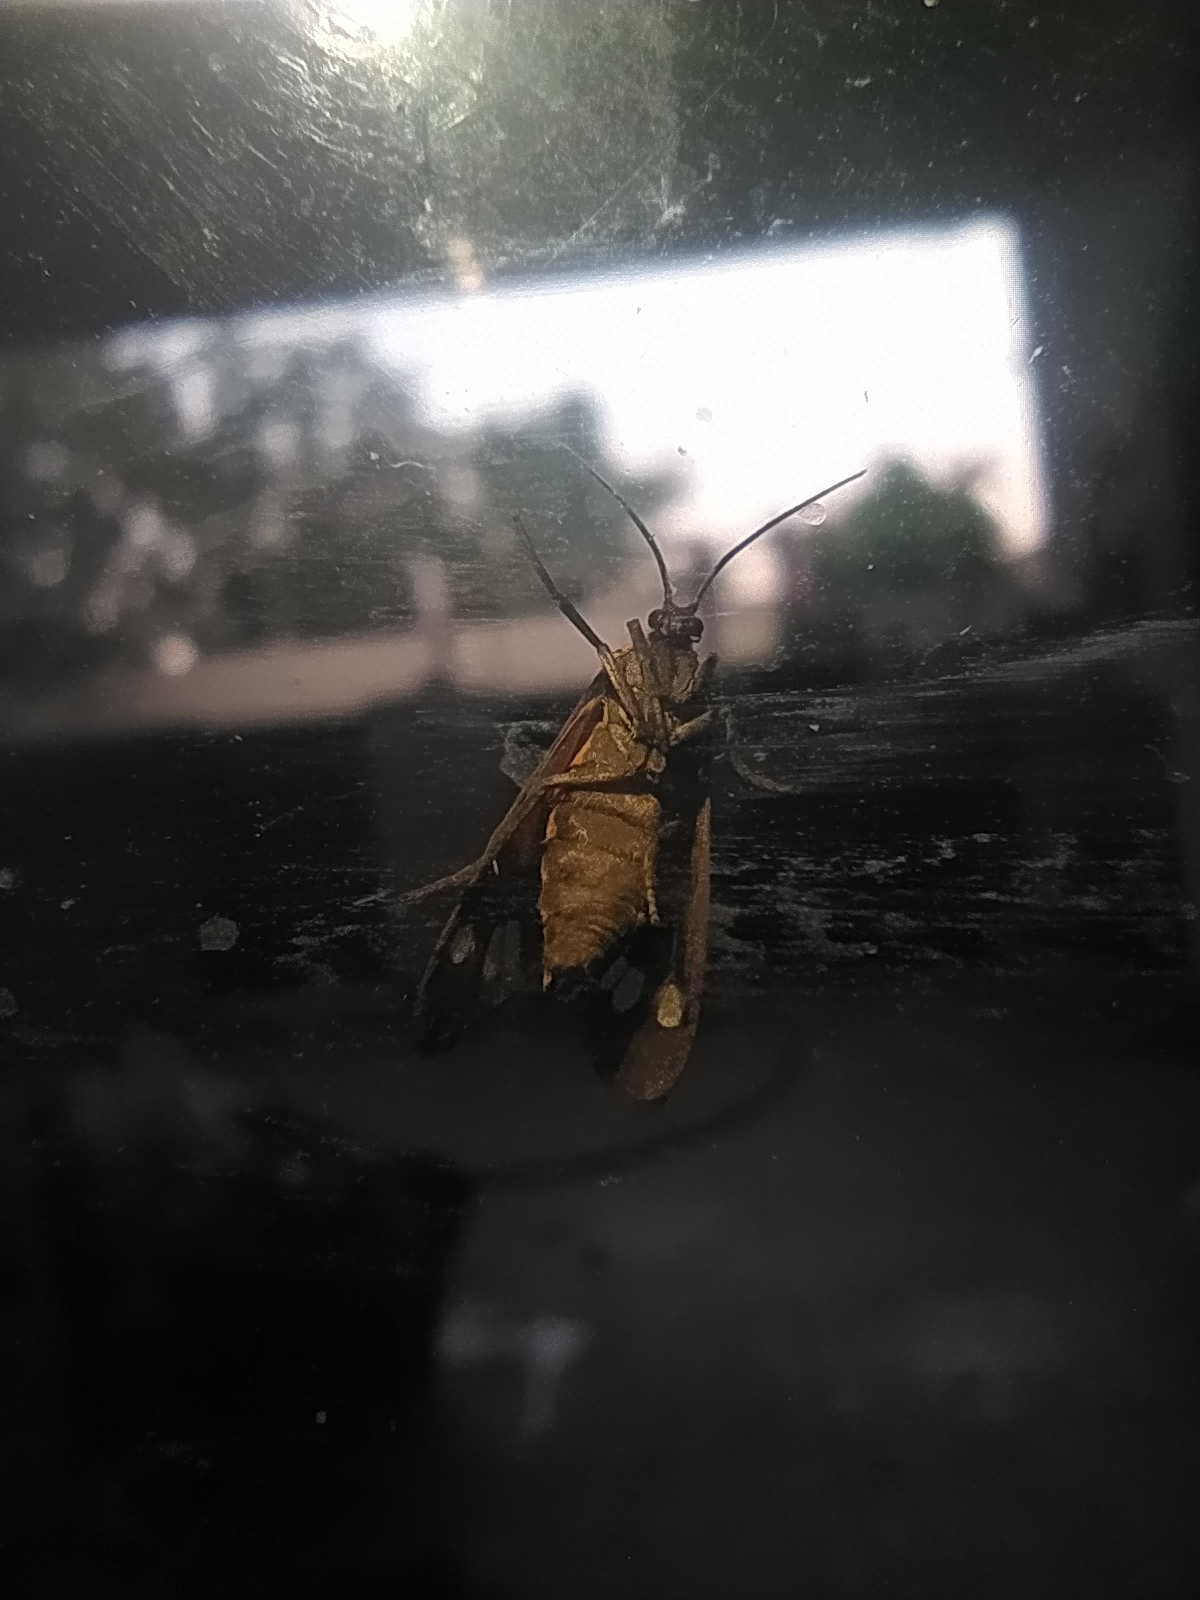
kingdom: Animalia
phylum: Arthropoda
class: Insecta
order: Lepidoptera
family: Erebidae
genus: Dysauxes
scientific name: Dysauxes punctata
